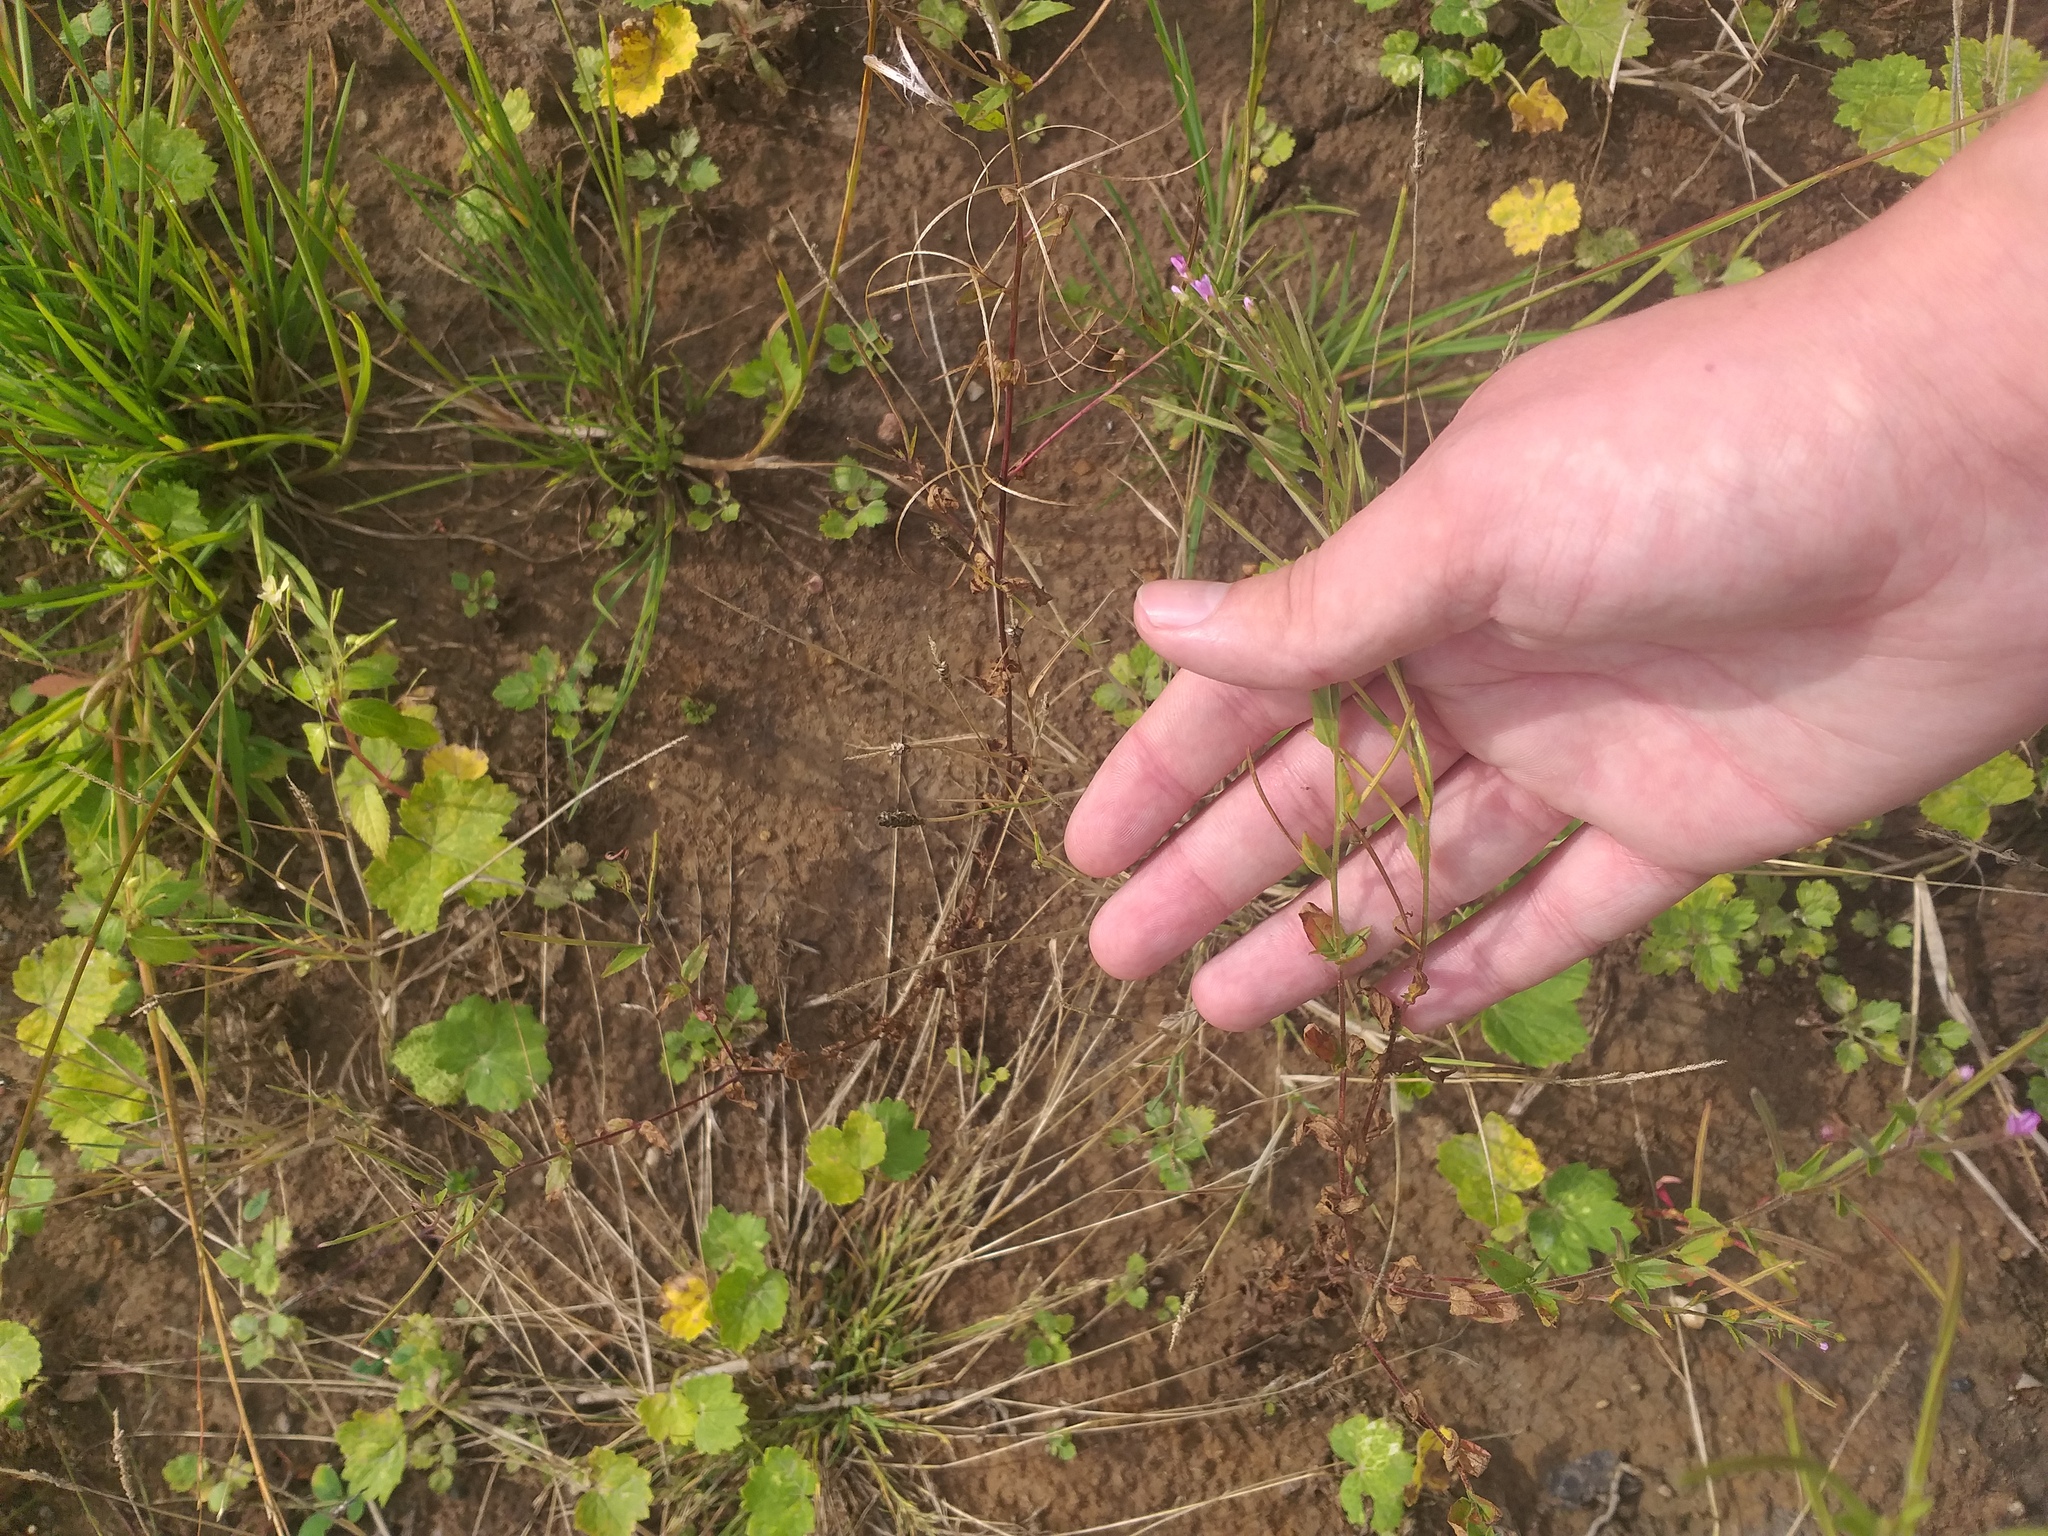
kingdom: Plantae
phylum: Tracheophyta
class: Magnoliopsida
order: Myrtales
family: Onagraceae
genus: Epilobium
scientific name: Epilobium ciliatum
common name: American willowherb
